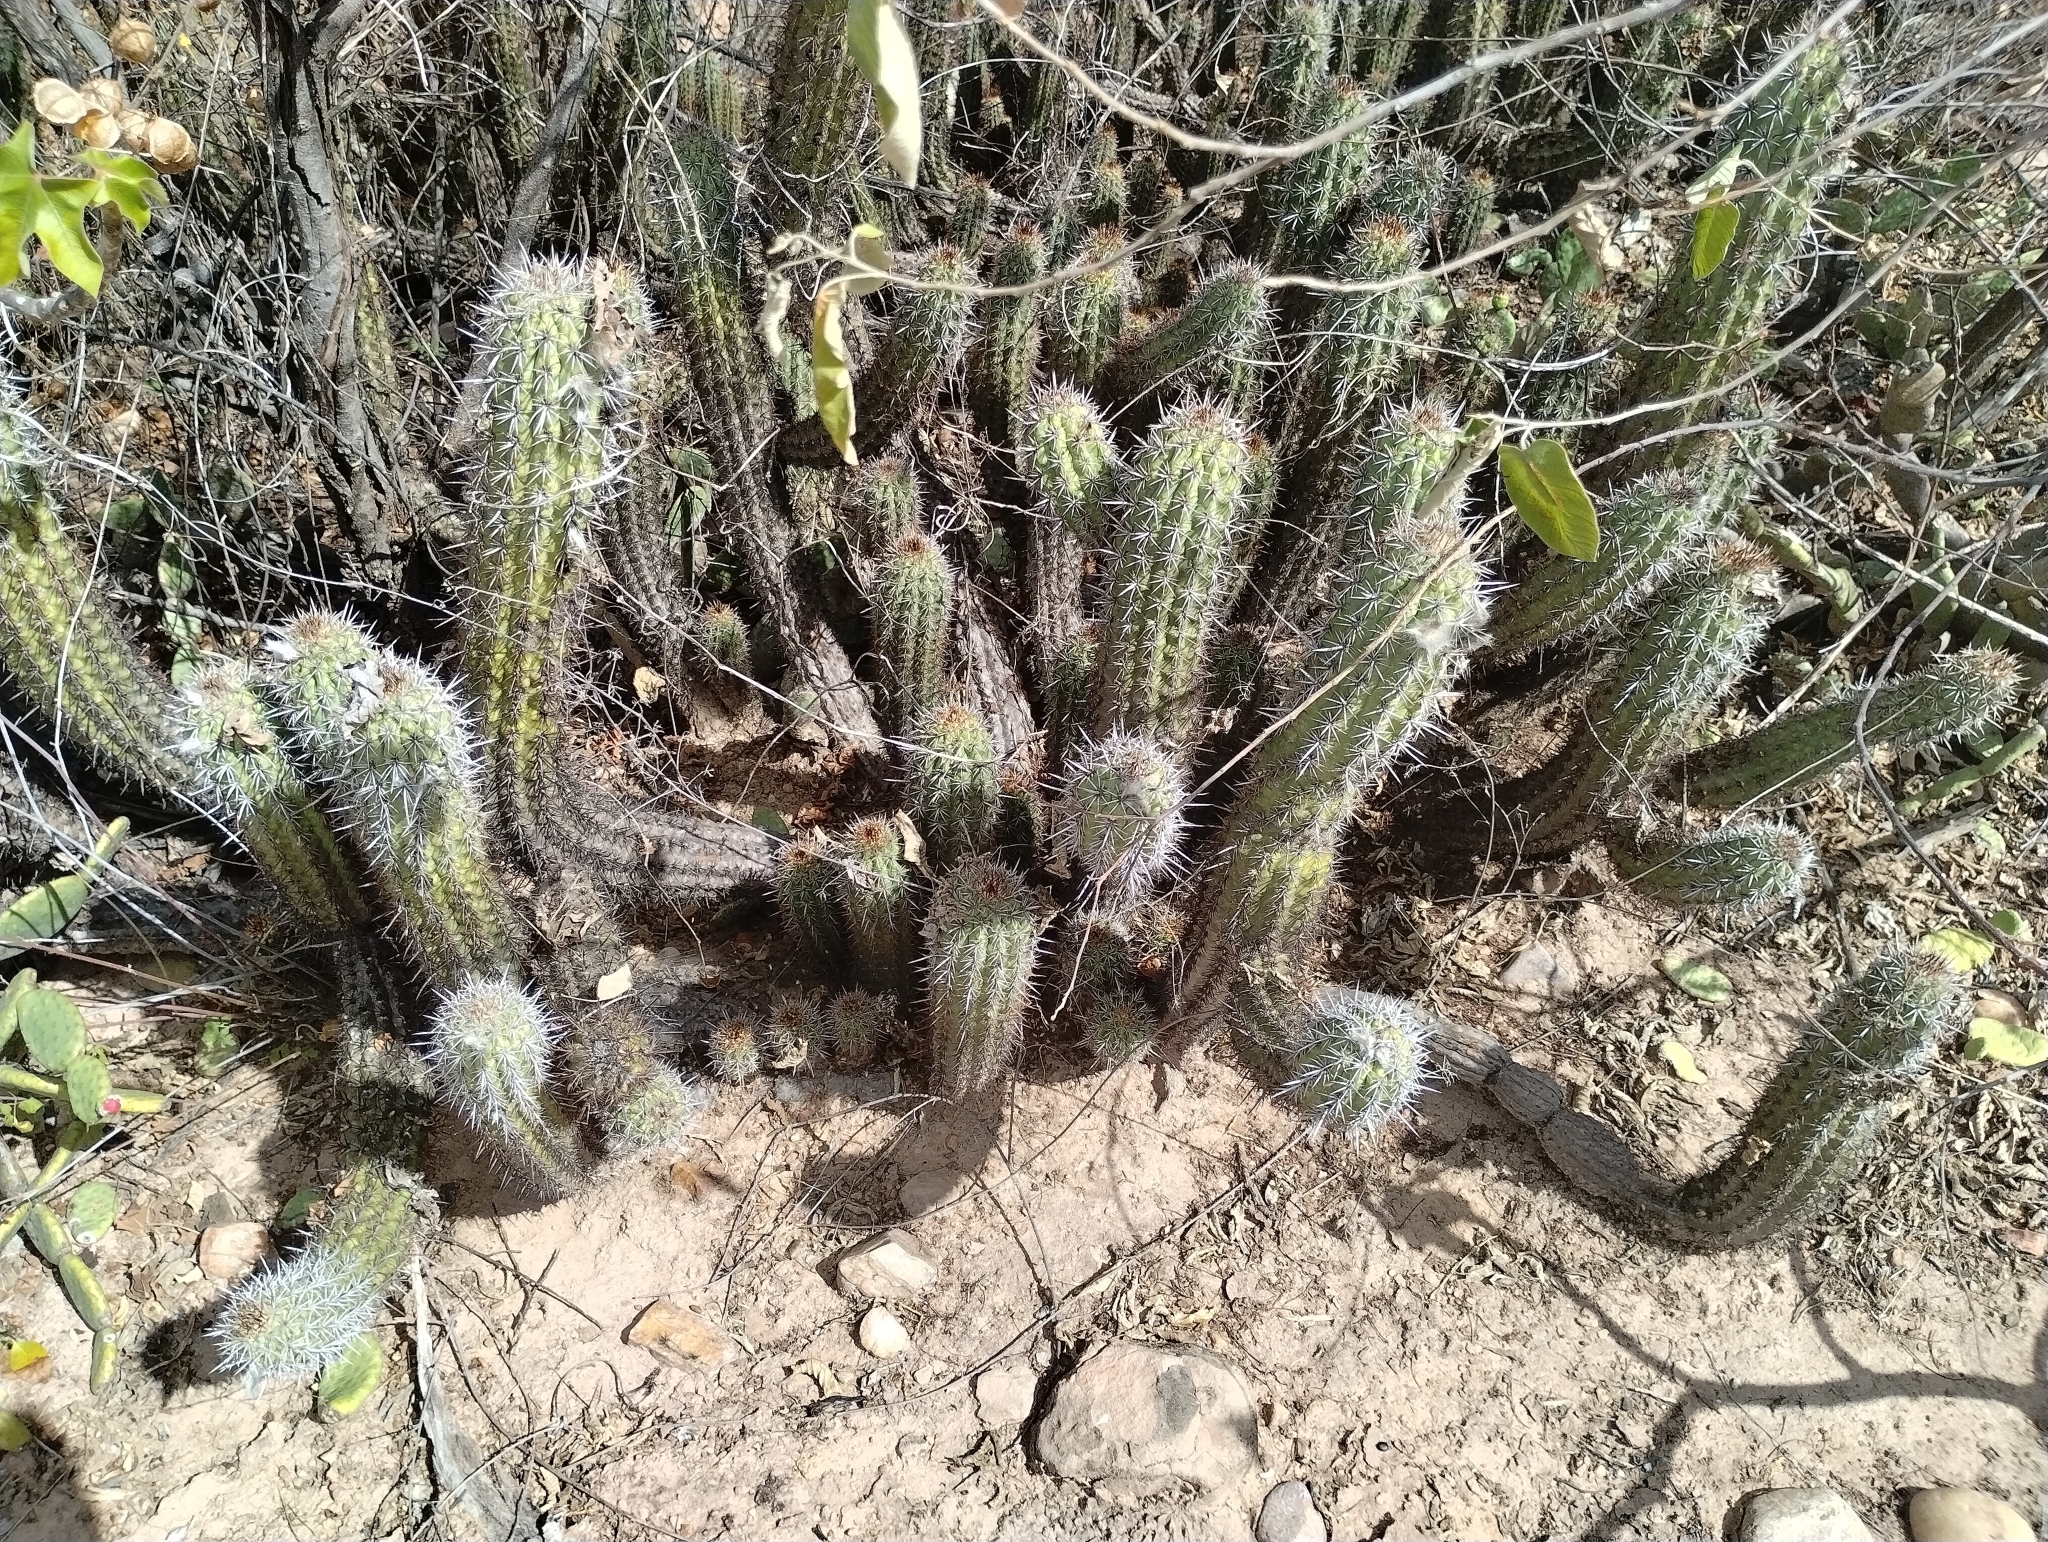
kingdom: Plantae
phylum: Tracheophyta
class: Magnoliopsida
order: Caryophyllales
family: Cactaceae
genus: Xiquexique
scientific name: Xiquexique gounellei
